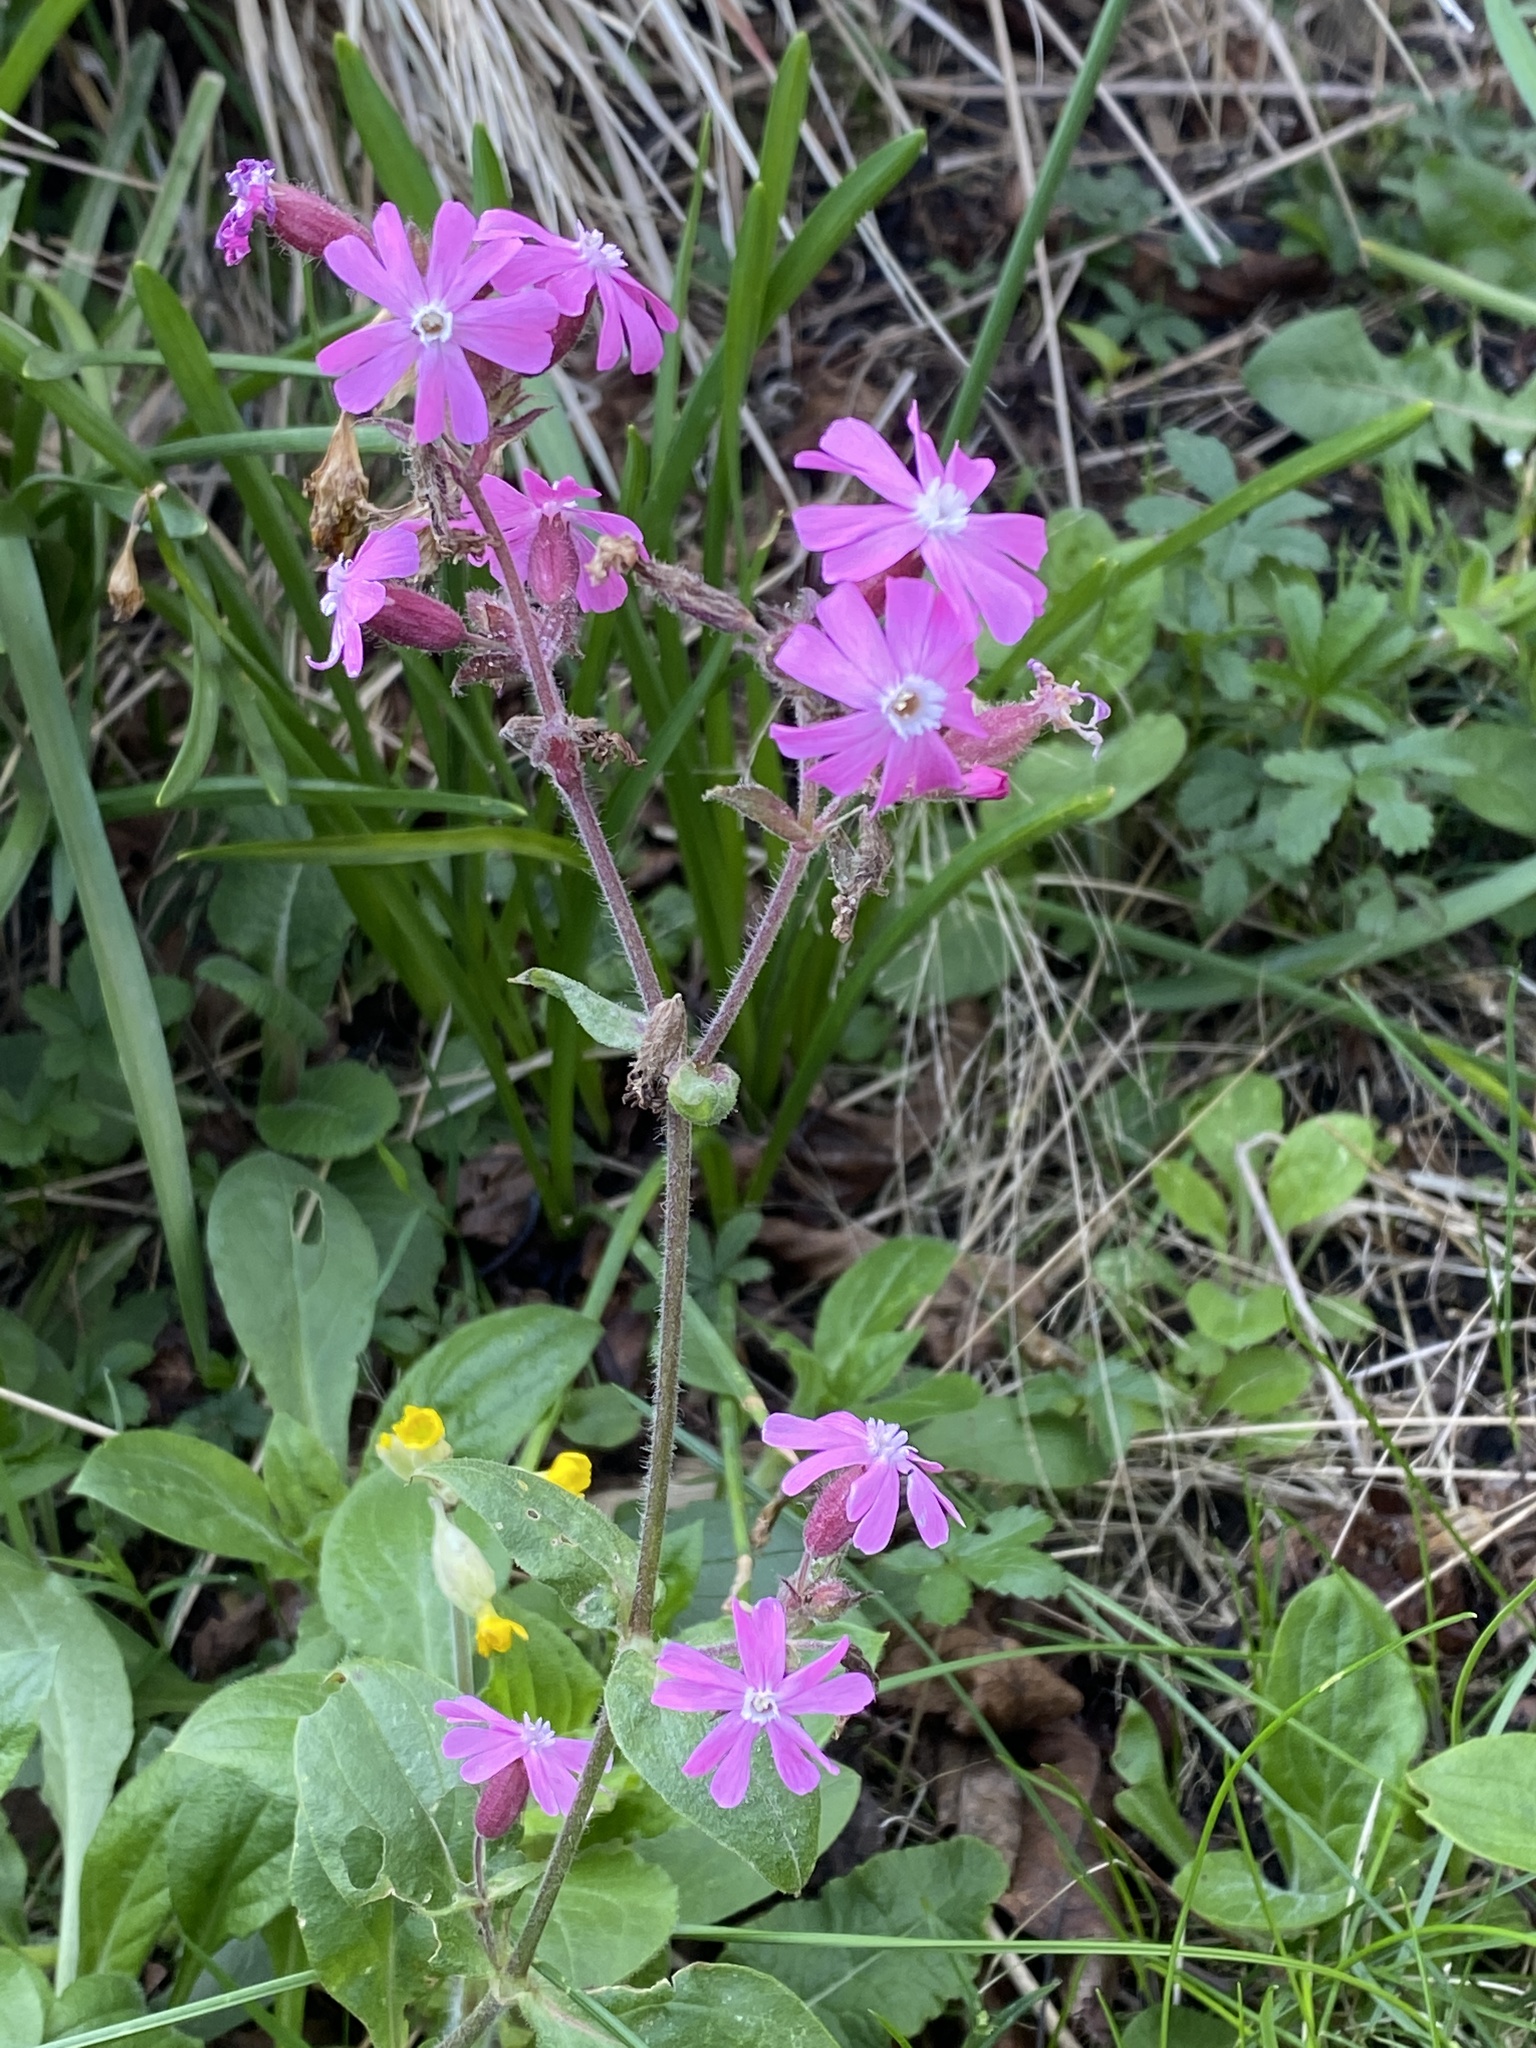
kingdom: Plantae
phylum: Tracheophyta
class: Magnoliopsida
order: Caryophyllales
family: Caryophyllaceae
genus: Silene
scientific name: Silene dioica
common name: Red campion
